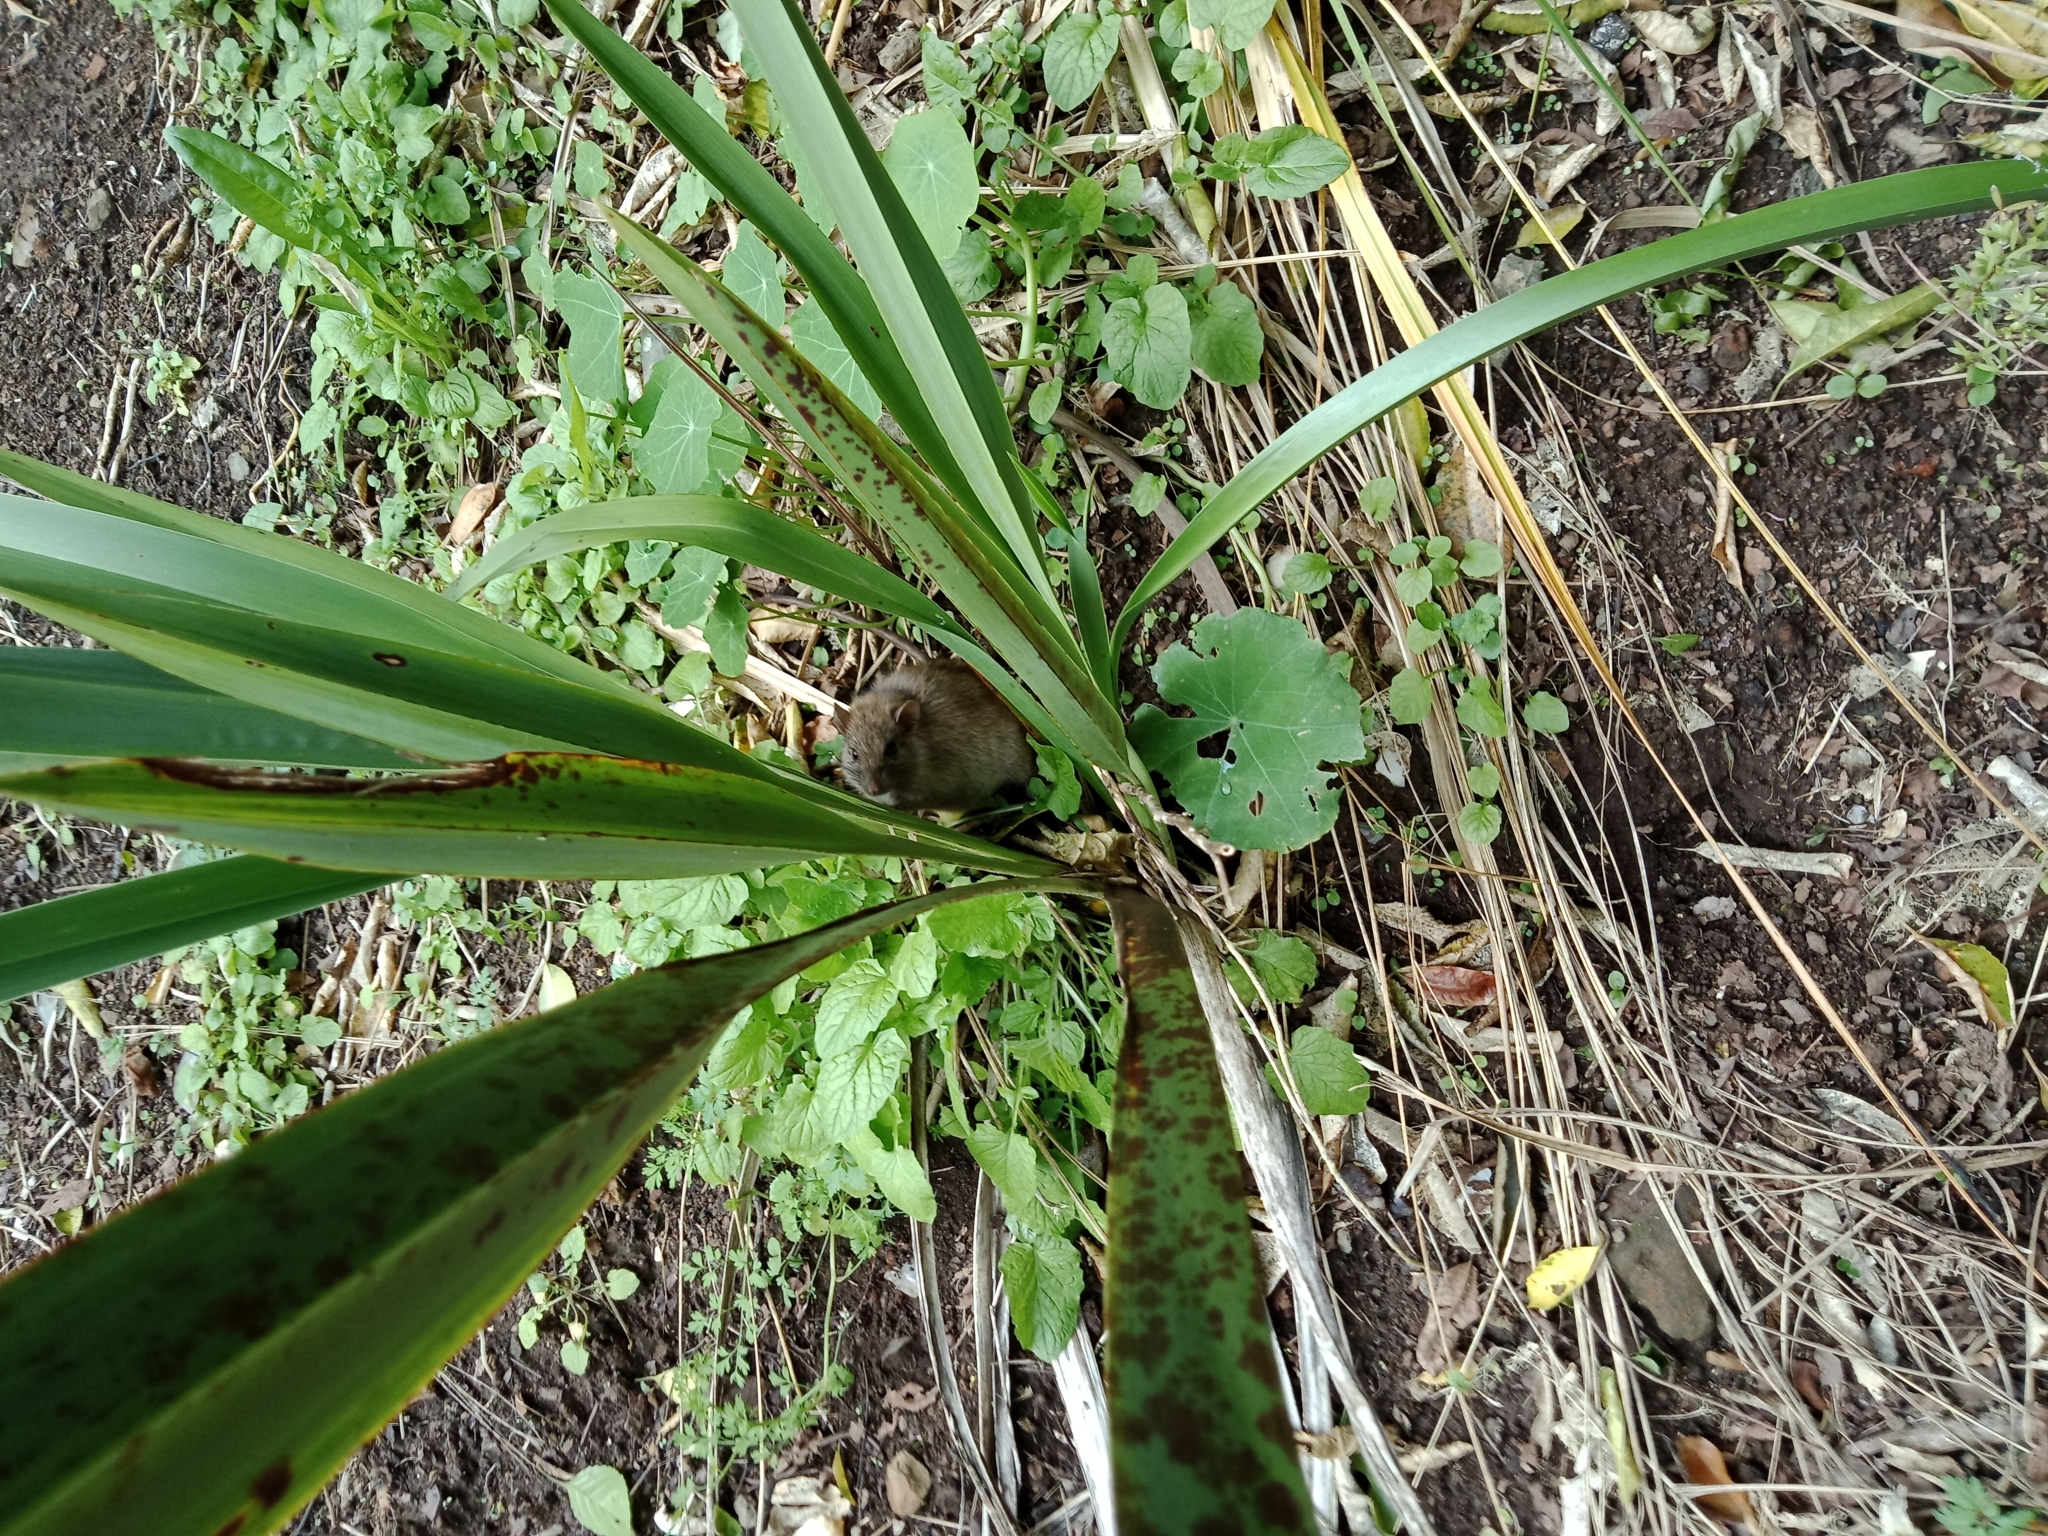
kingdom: Animalia
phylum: Chordata
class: Mammalia
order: Rodentia
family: Muridae
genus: Rattus
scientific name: Rattus rattus
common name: Black rat
